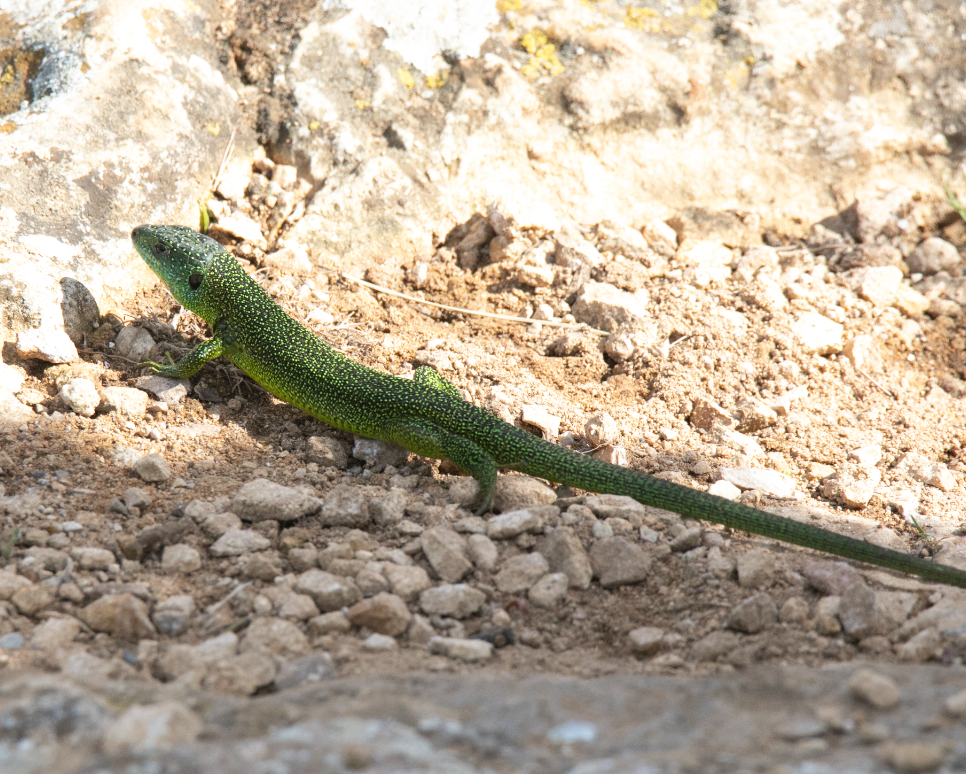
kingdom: Animalia
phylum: Chordata
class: Squamata
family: Lacertidae
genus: Lacerta
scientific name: Lacerta bilineata
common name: Western green lizard
